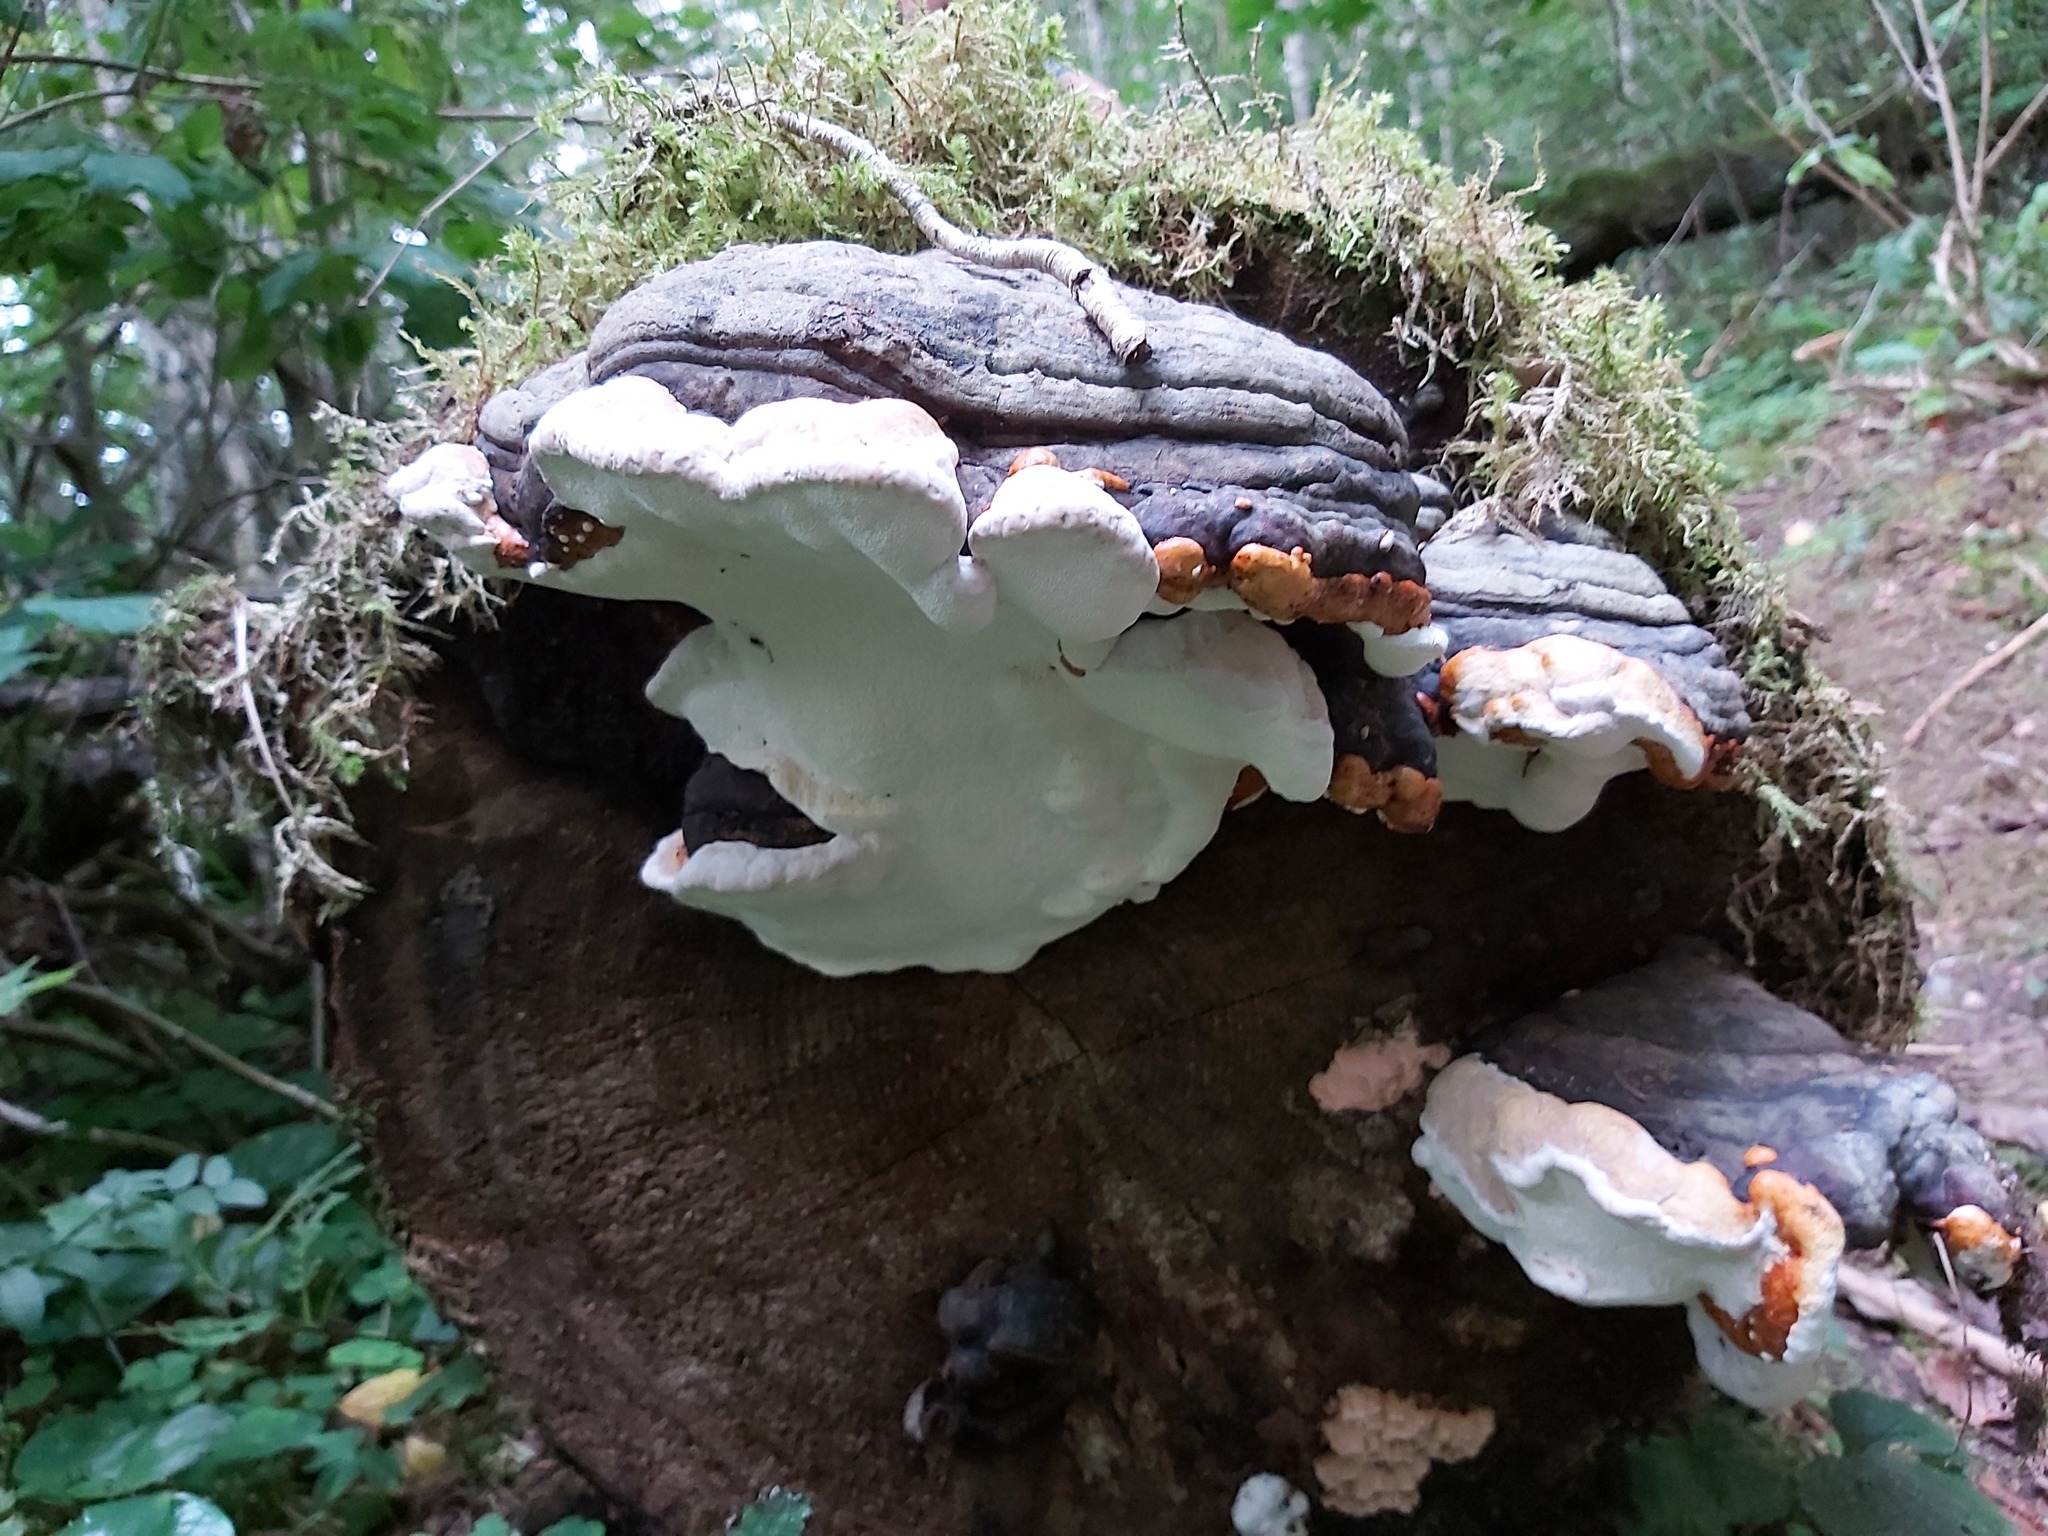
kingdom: Fungi
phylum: Basidiomycota
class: Agaricomycetes
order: Polyporales
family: Fomitopsidaceae
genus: Fomitopsis
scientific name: Fomitopsis pinicola
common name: Red-belted bracket
